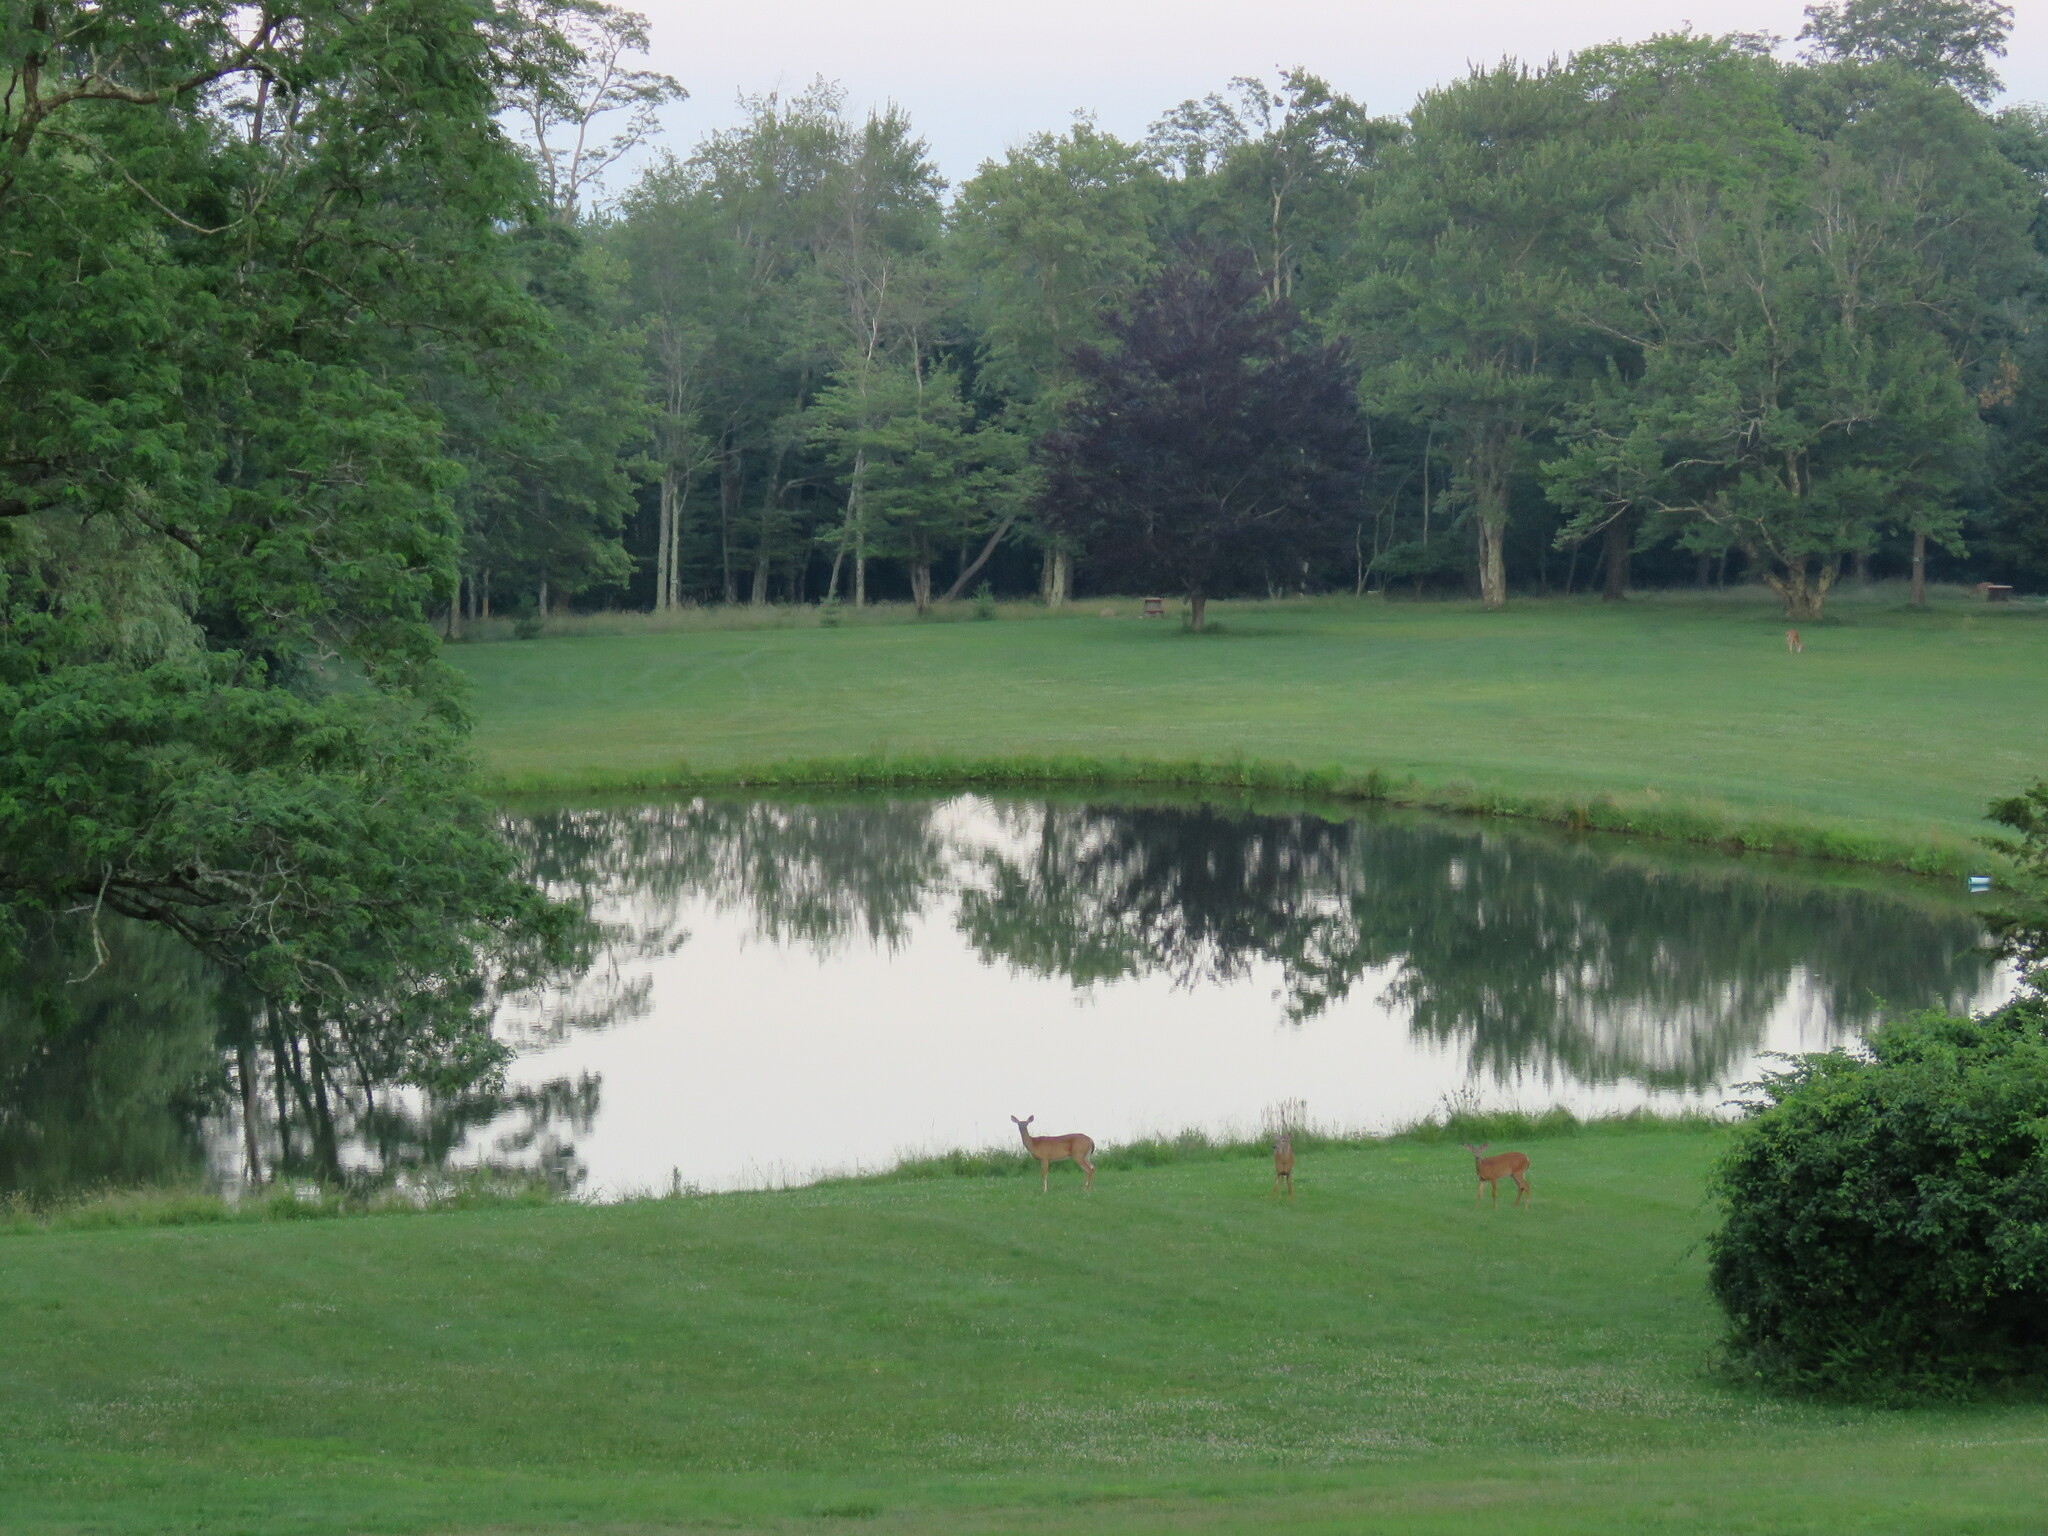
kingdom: Animalia
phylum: Chordata
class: Mammalia
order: Artiodactyla
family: Cervidae
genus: Odocoileus
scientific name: Odocoileus virginianus
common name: White-tailed deer
